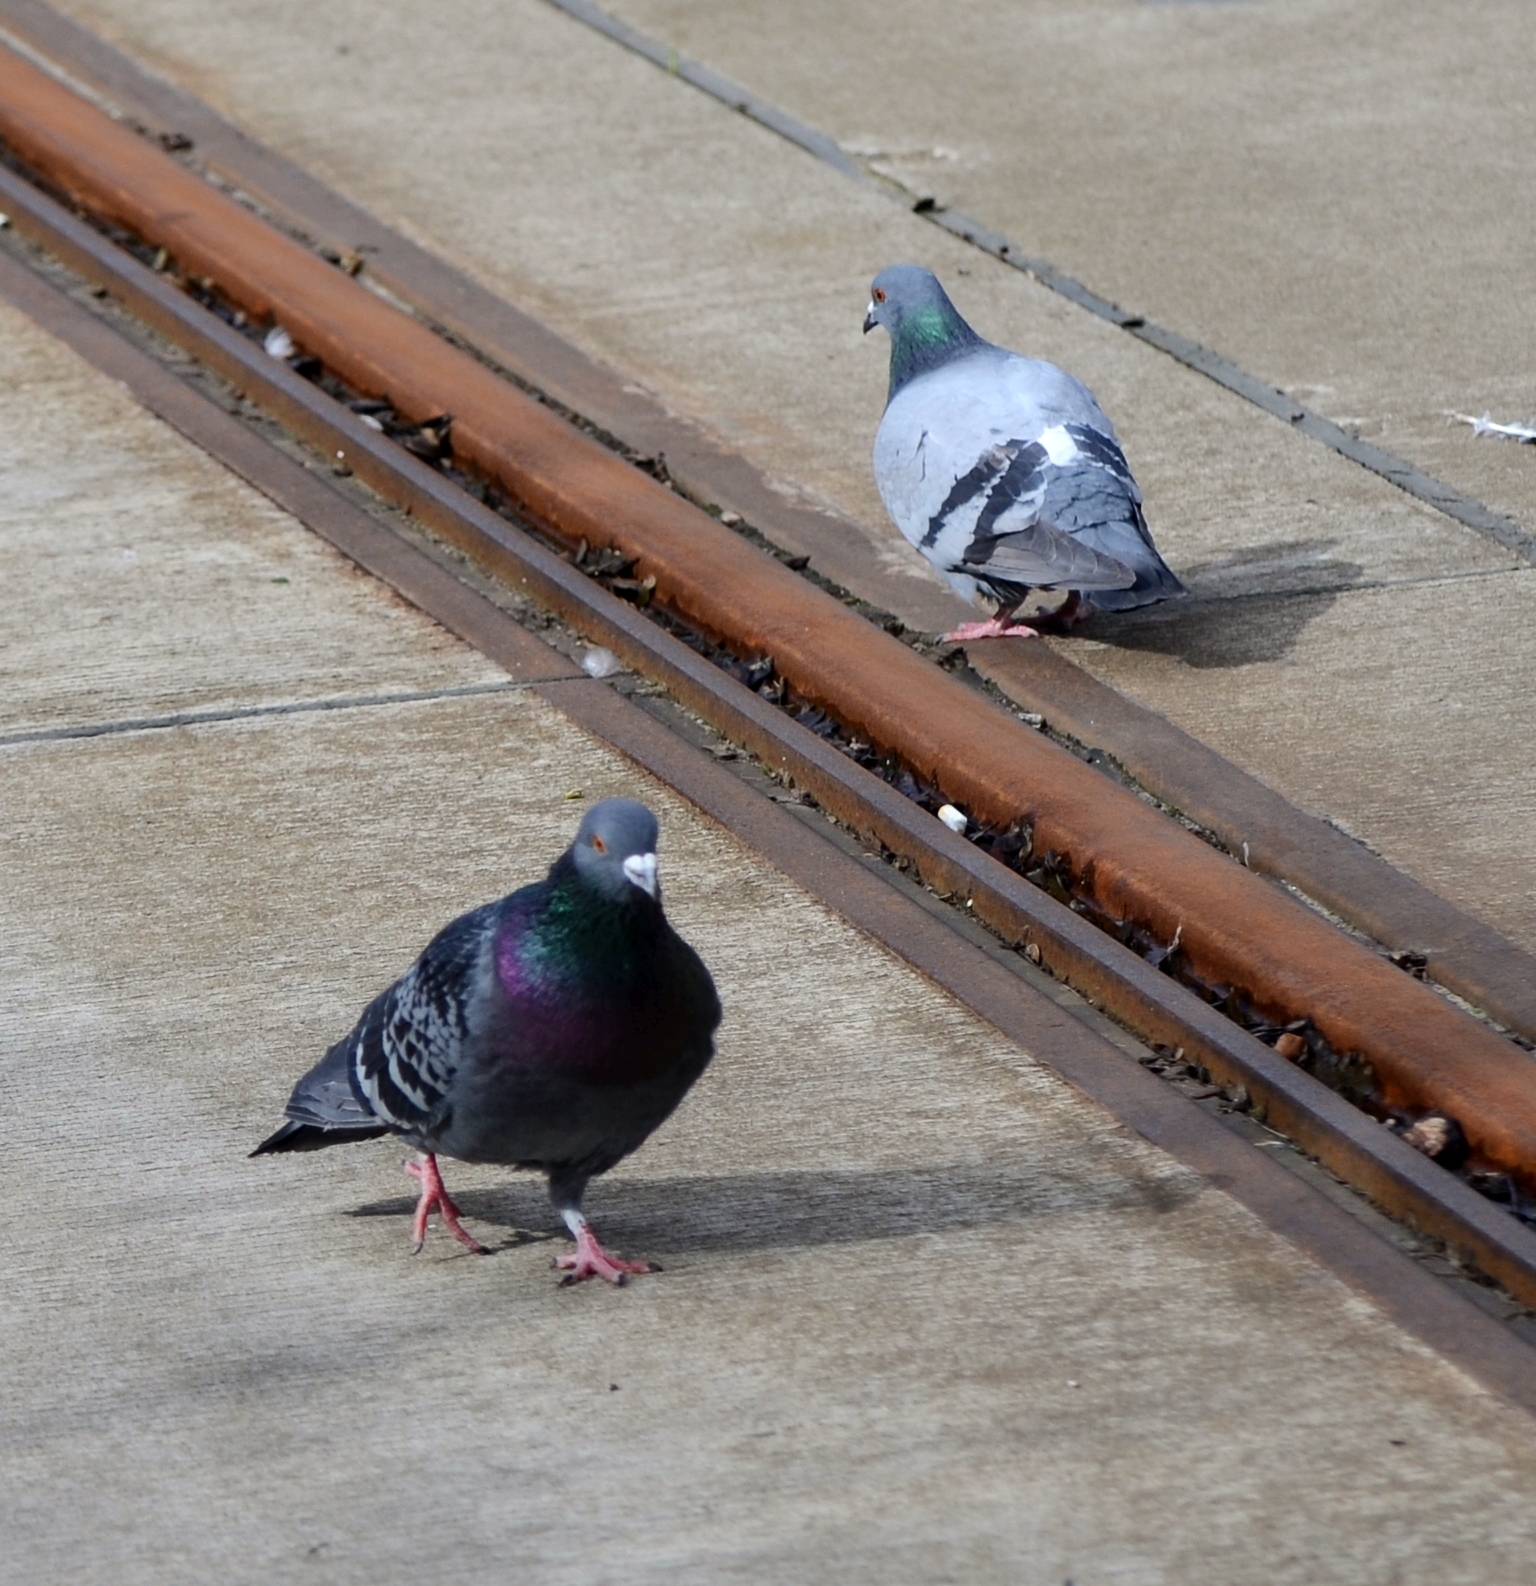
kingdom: Animalia
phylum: Chordata
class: Aves
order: Columbiformes
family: Columbidae
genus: Columba
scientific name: Columba livia
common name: Rock pigeon
